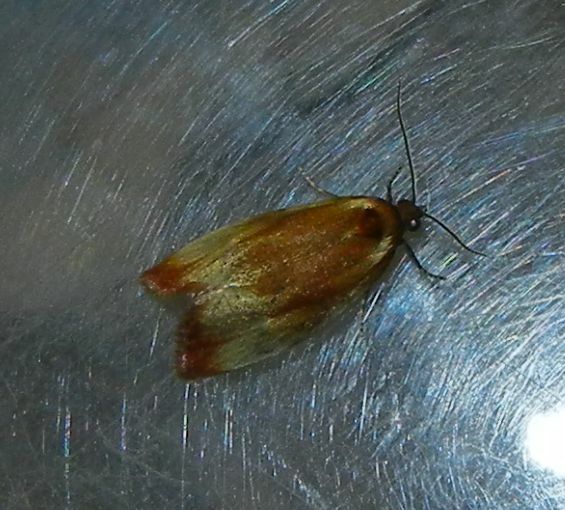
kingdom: Animalia
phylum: Arthropoda
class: Insecta
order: Lepidoptera
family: Tortricidae
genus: Eulia
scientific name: Eulia ministrana
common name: Brassy twist
